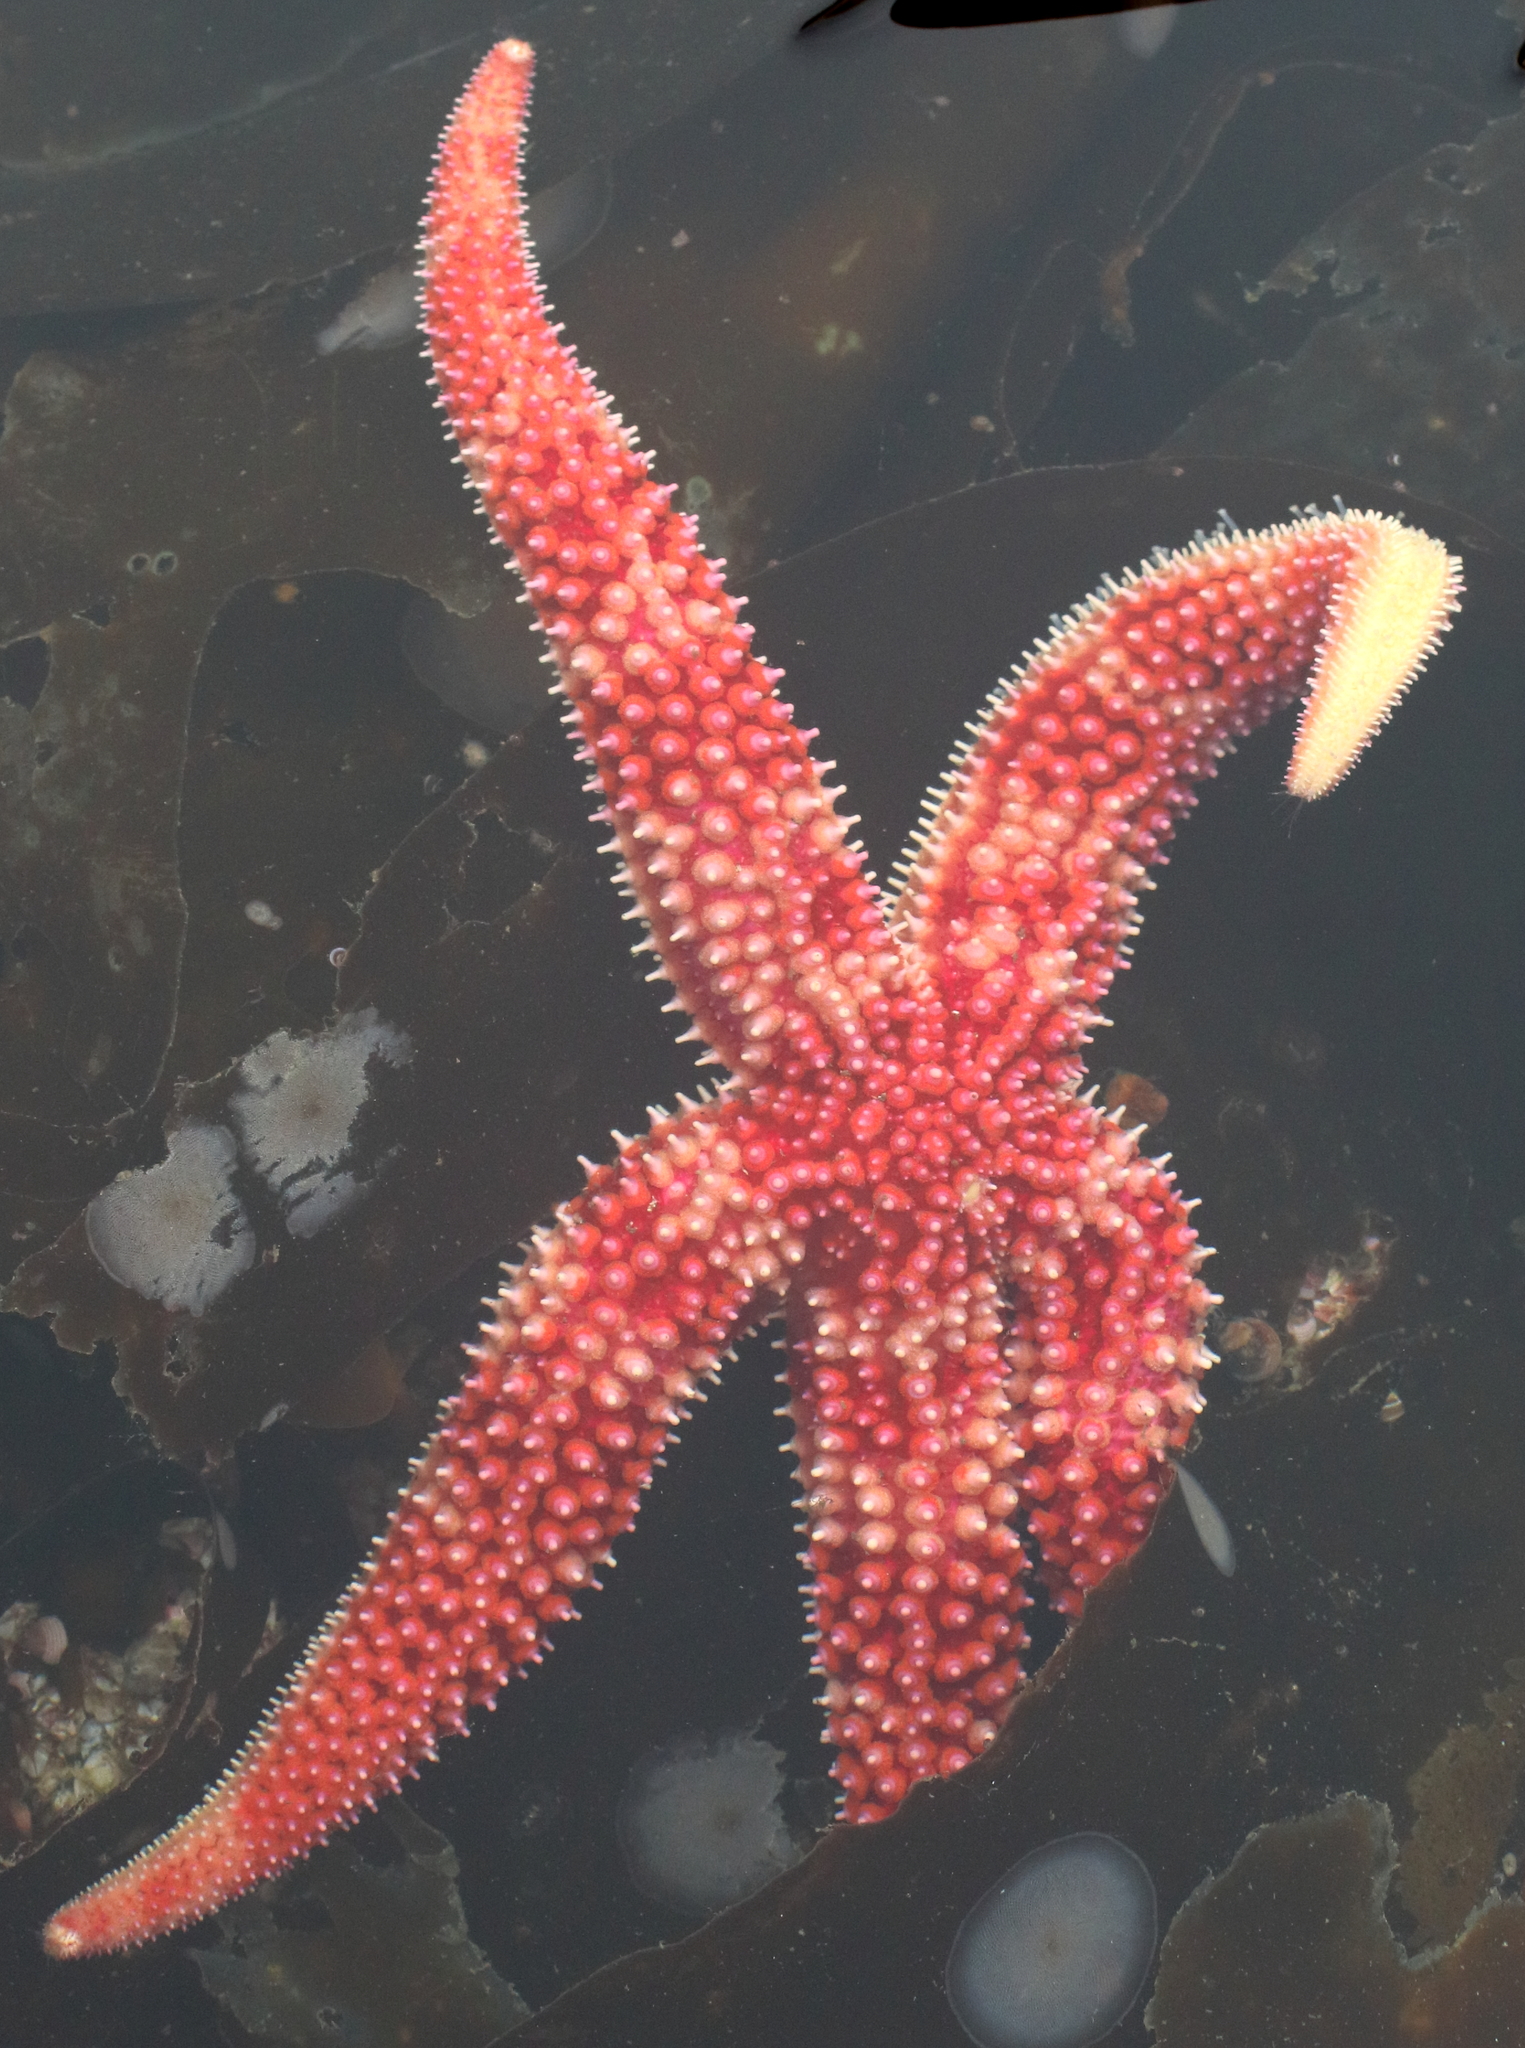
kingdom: Animalia
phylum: Echinodermata
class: Asteroidea
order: Forcipulatida
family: Asteriidae
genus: Orthasterias
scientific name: Orthasterias koehleri
